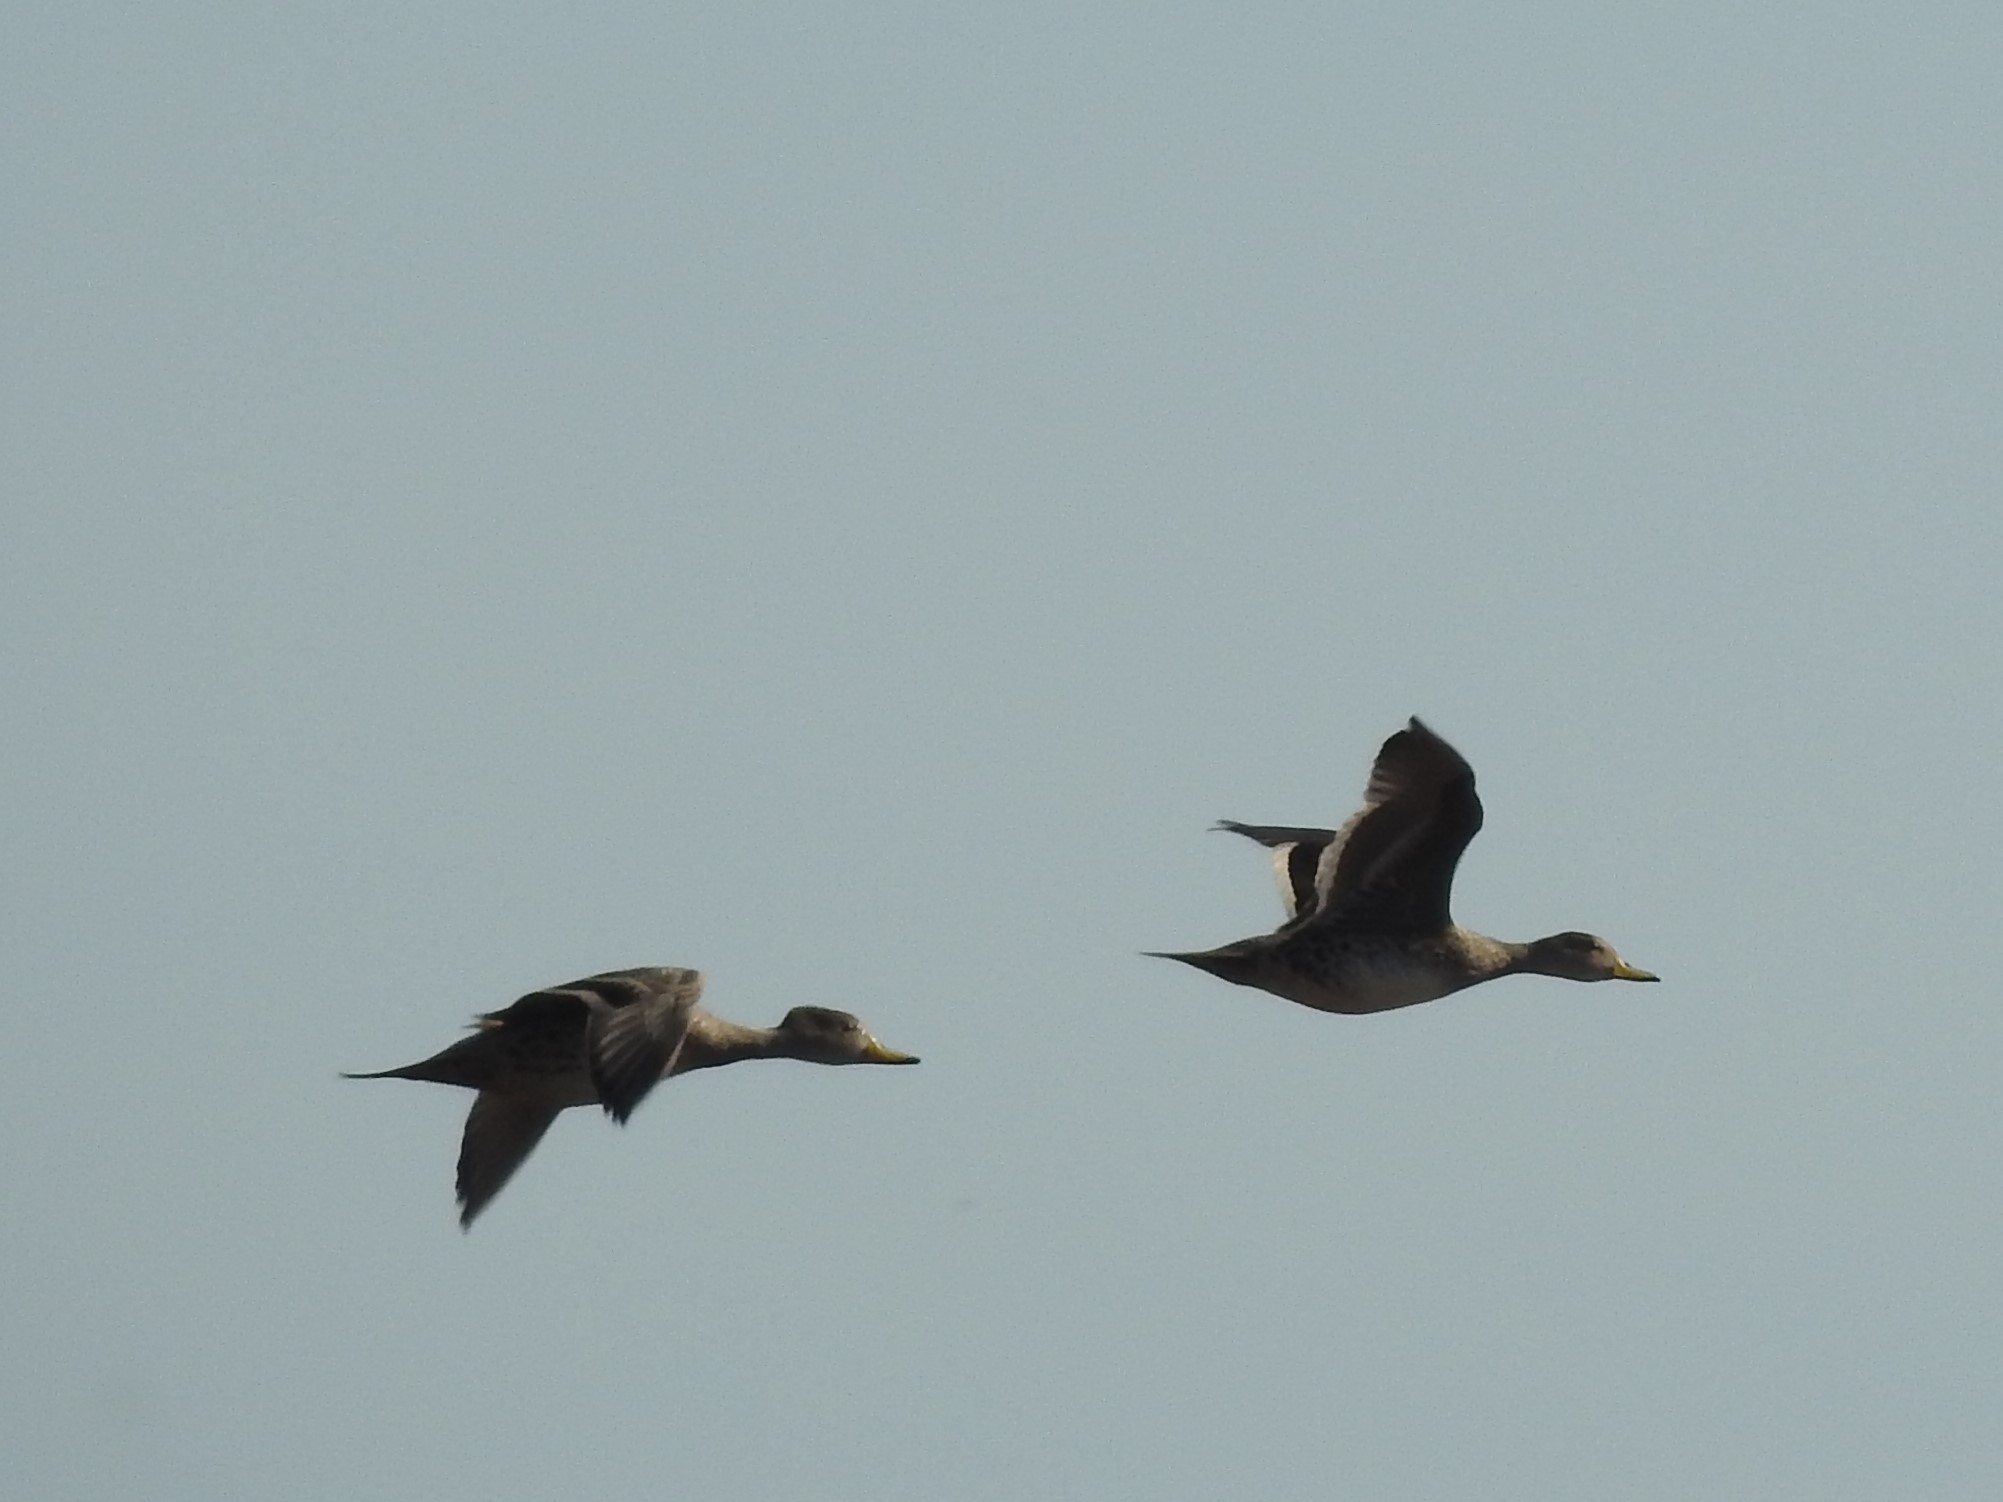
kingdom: Animalia
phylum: Chordata
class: Aves
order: Anseriformes
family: Anatidae
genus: Anas
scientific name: Anas georgica
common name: Yellow-billed pintail
